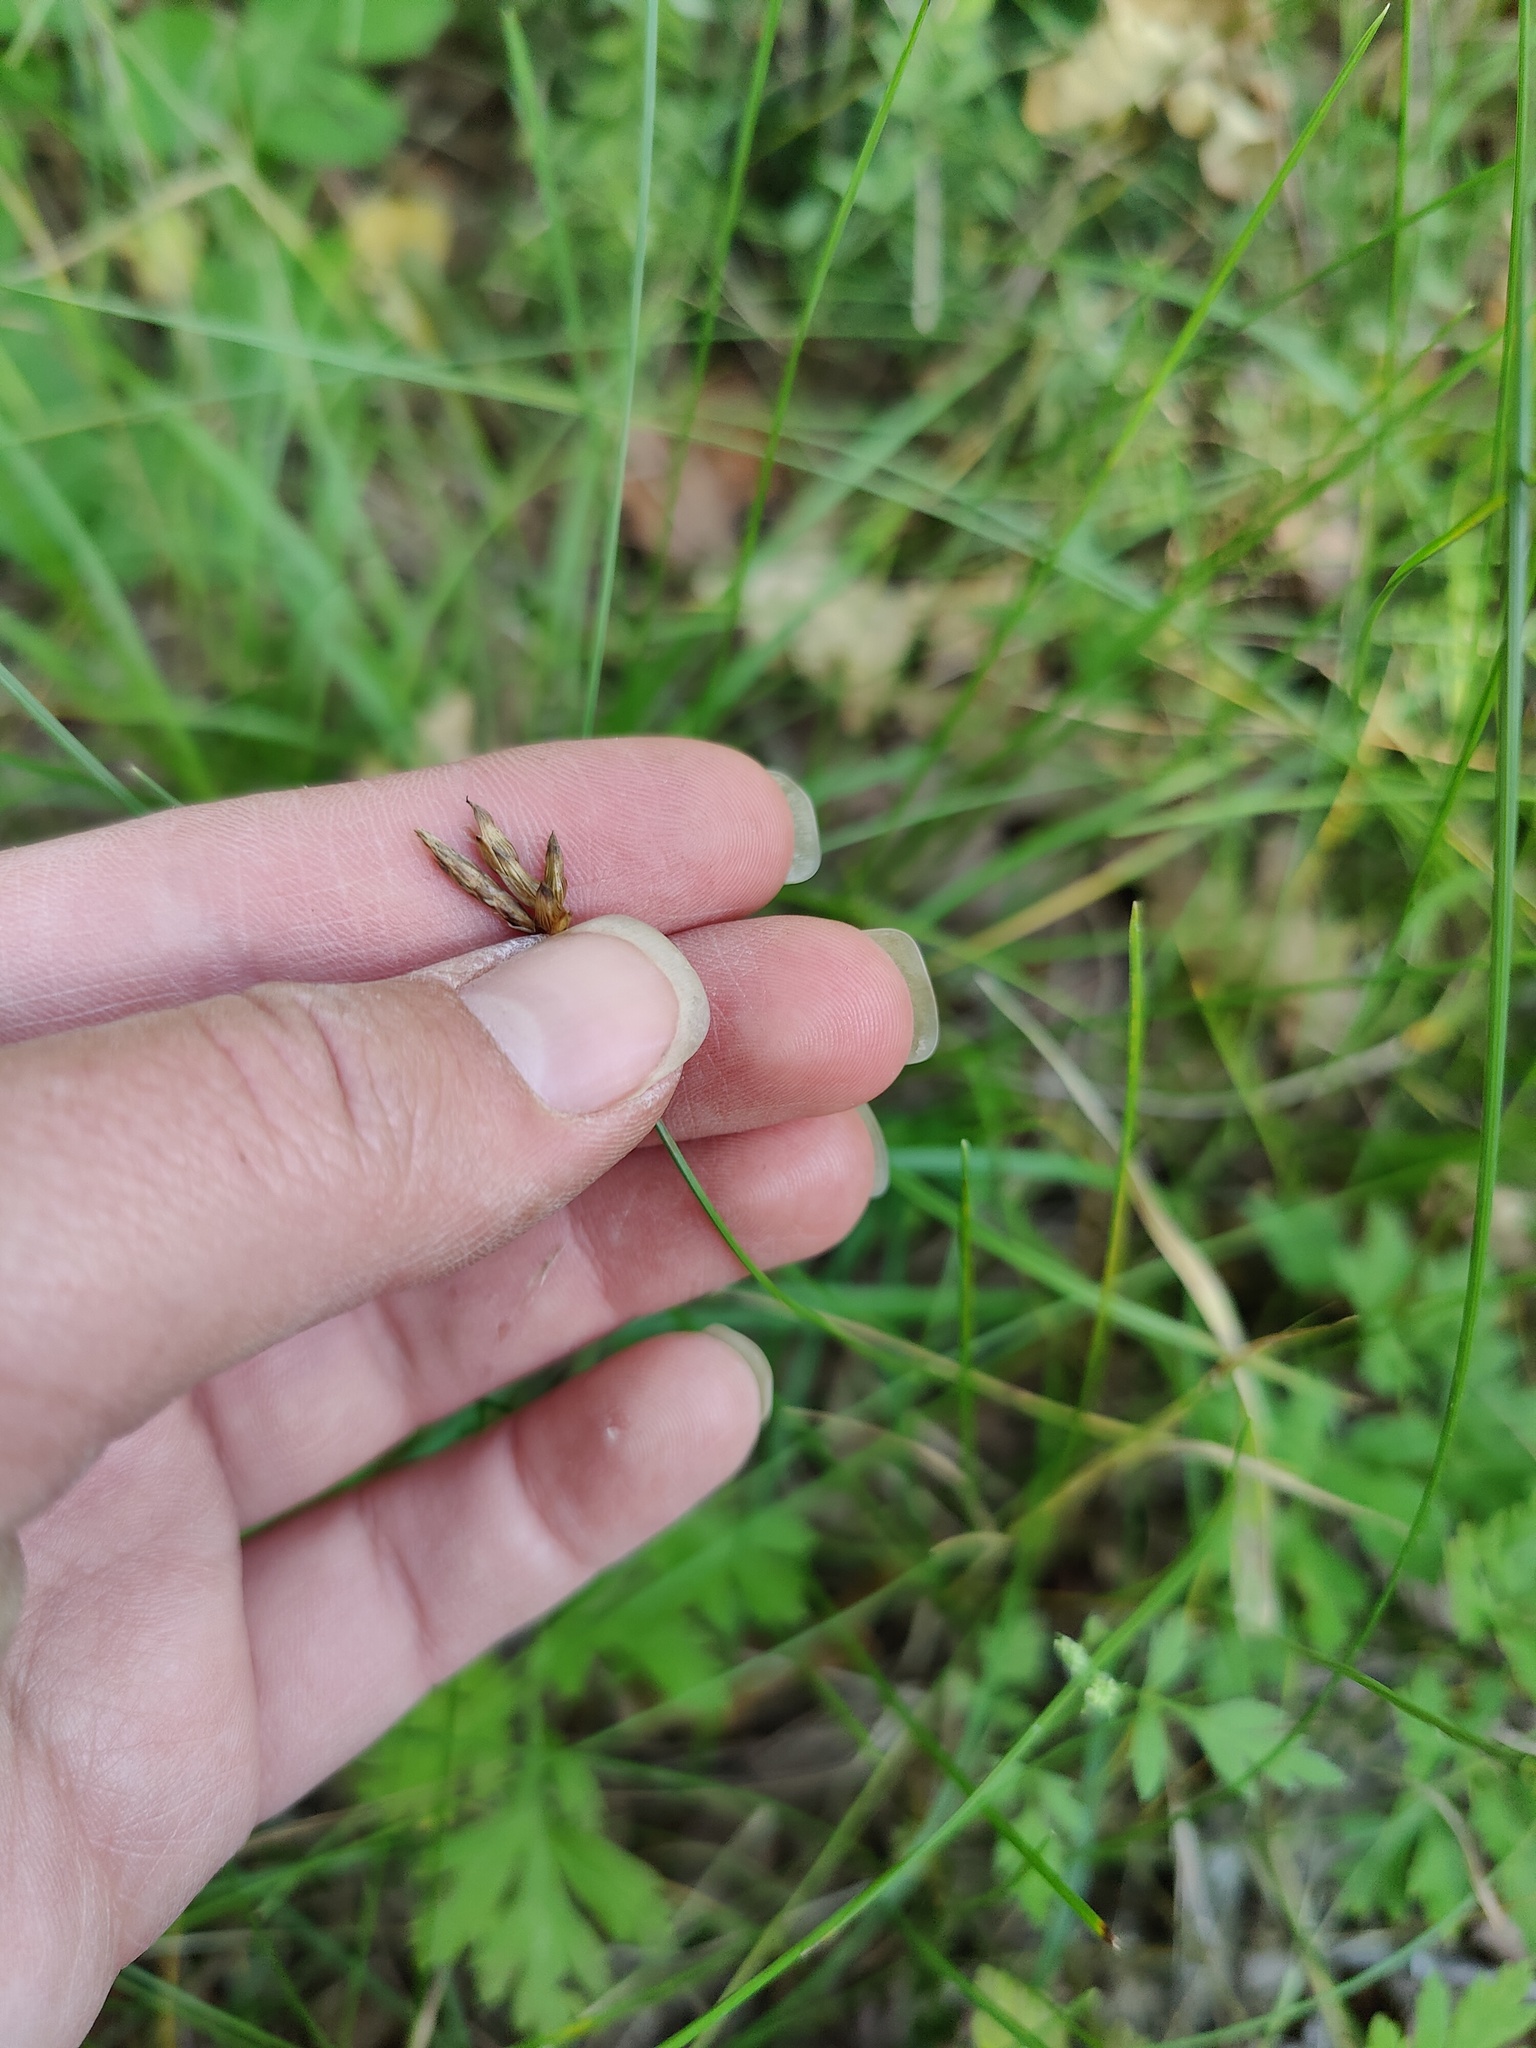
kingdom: Plantae
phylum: Tracheophyta
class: Liliopsida
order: Poales
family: Cyperaceae
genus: Carex
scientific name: Carex halleriana
